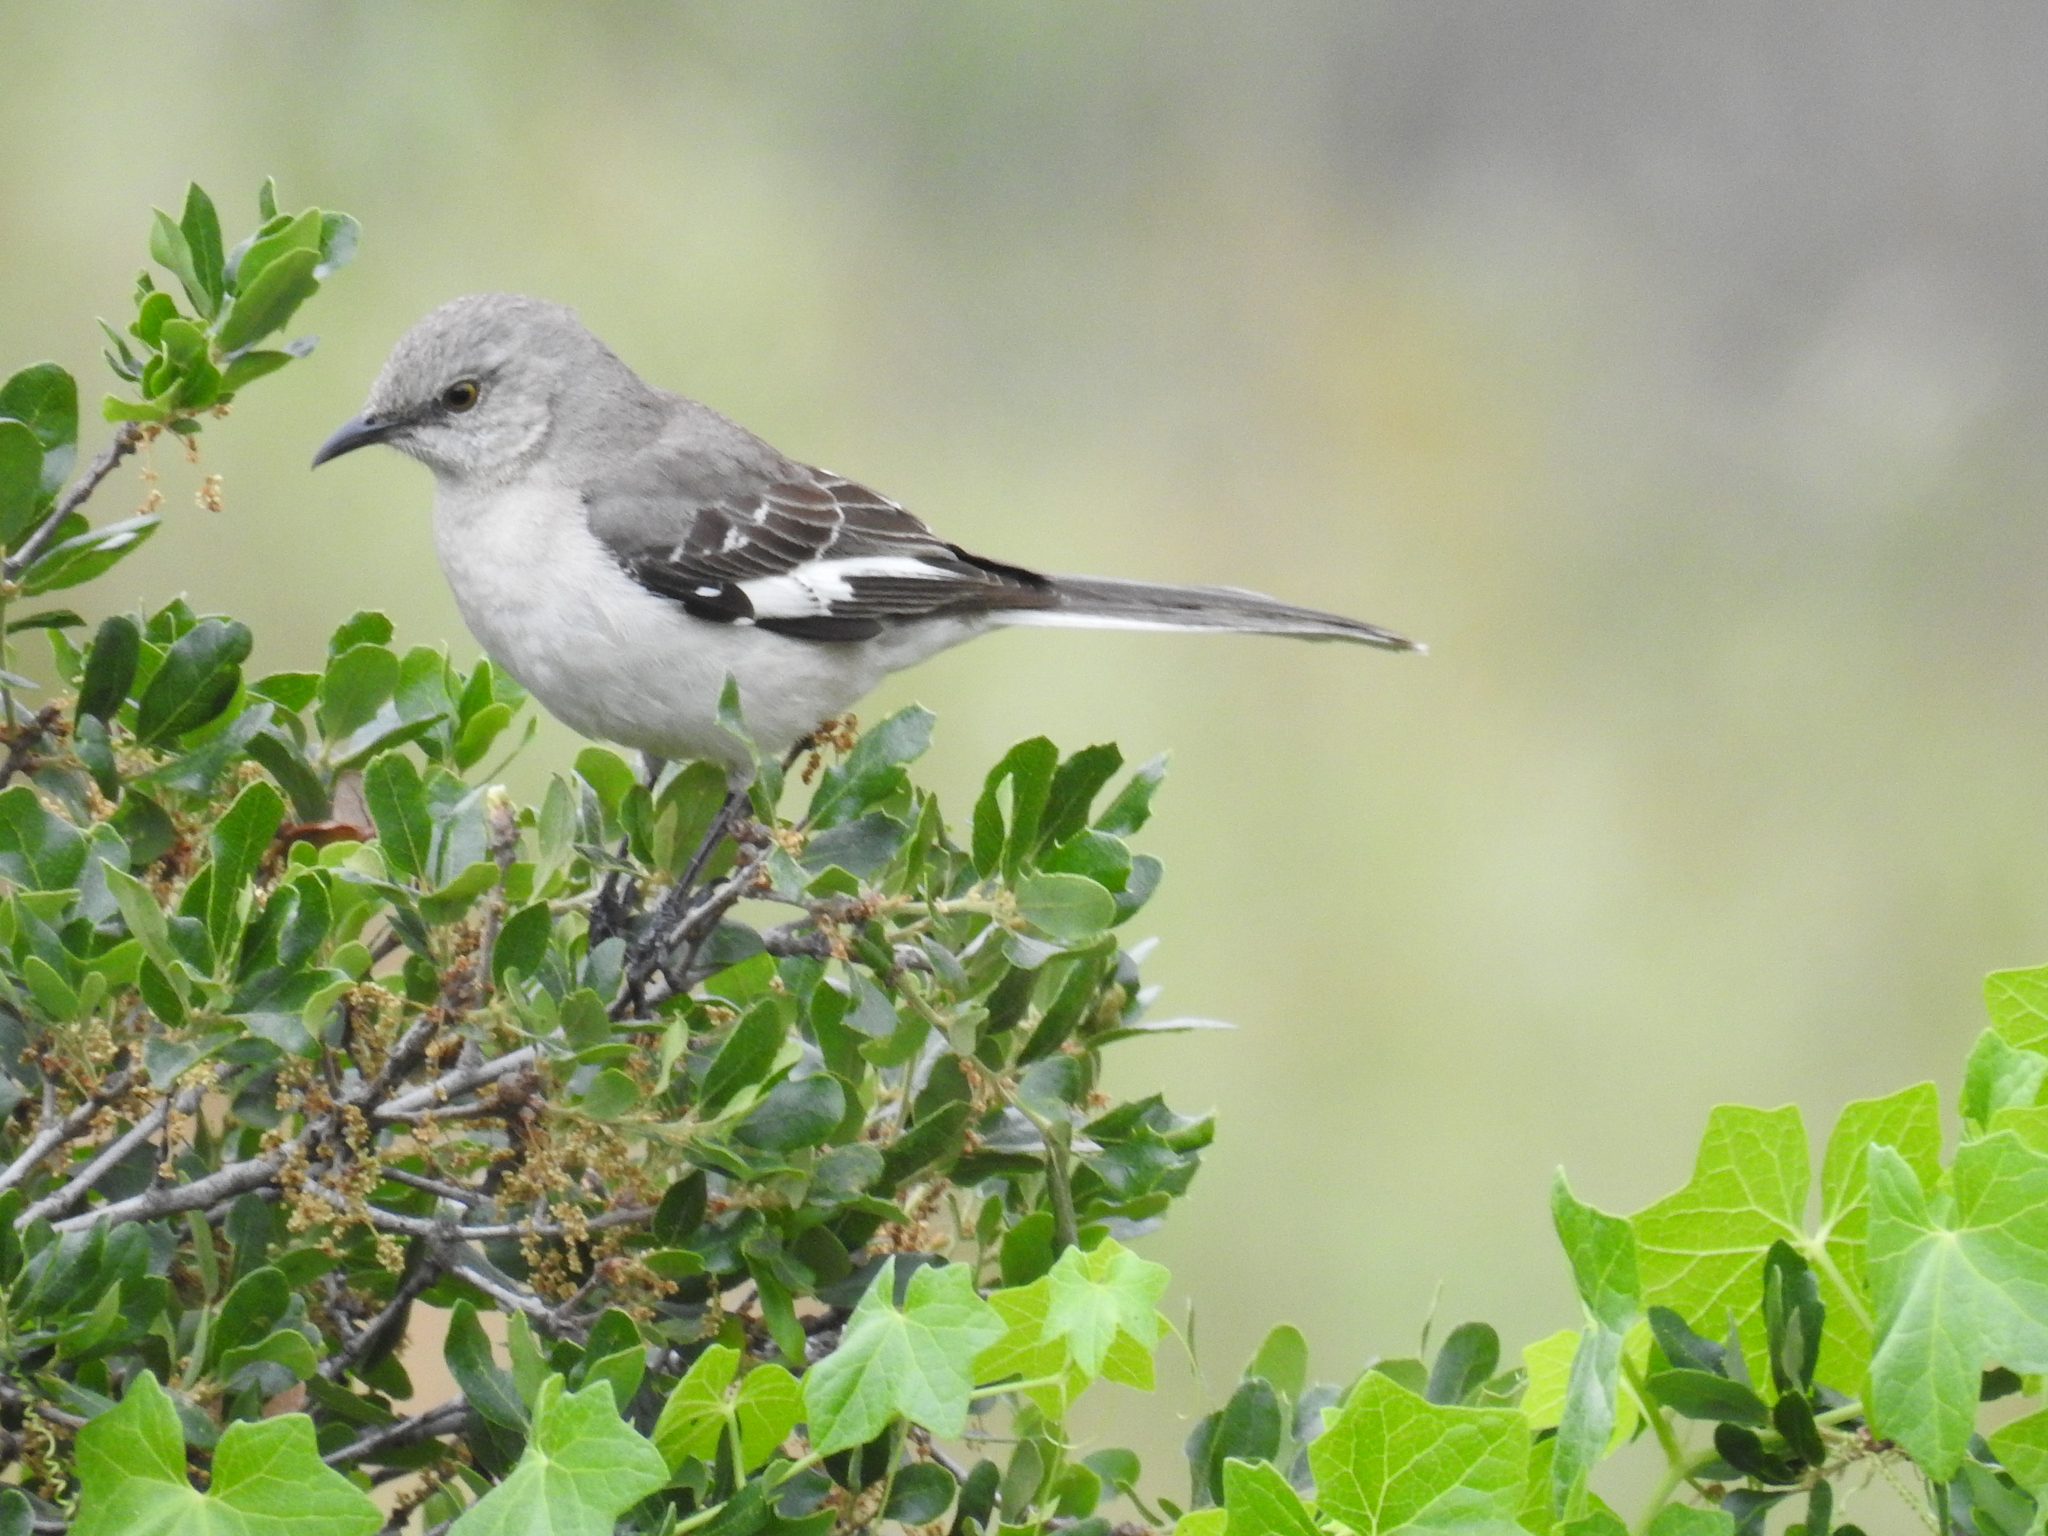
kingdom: Animalia
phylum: Chordata
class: Aves
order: Passeriformes
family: Mimidae
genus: Mimus
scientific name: Mimus polyglottos
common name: Northern mockingbird
